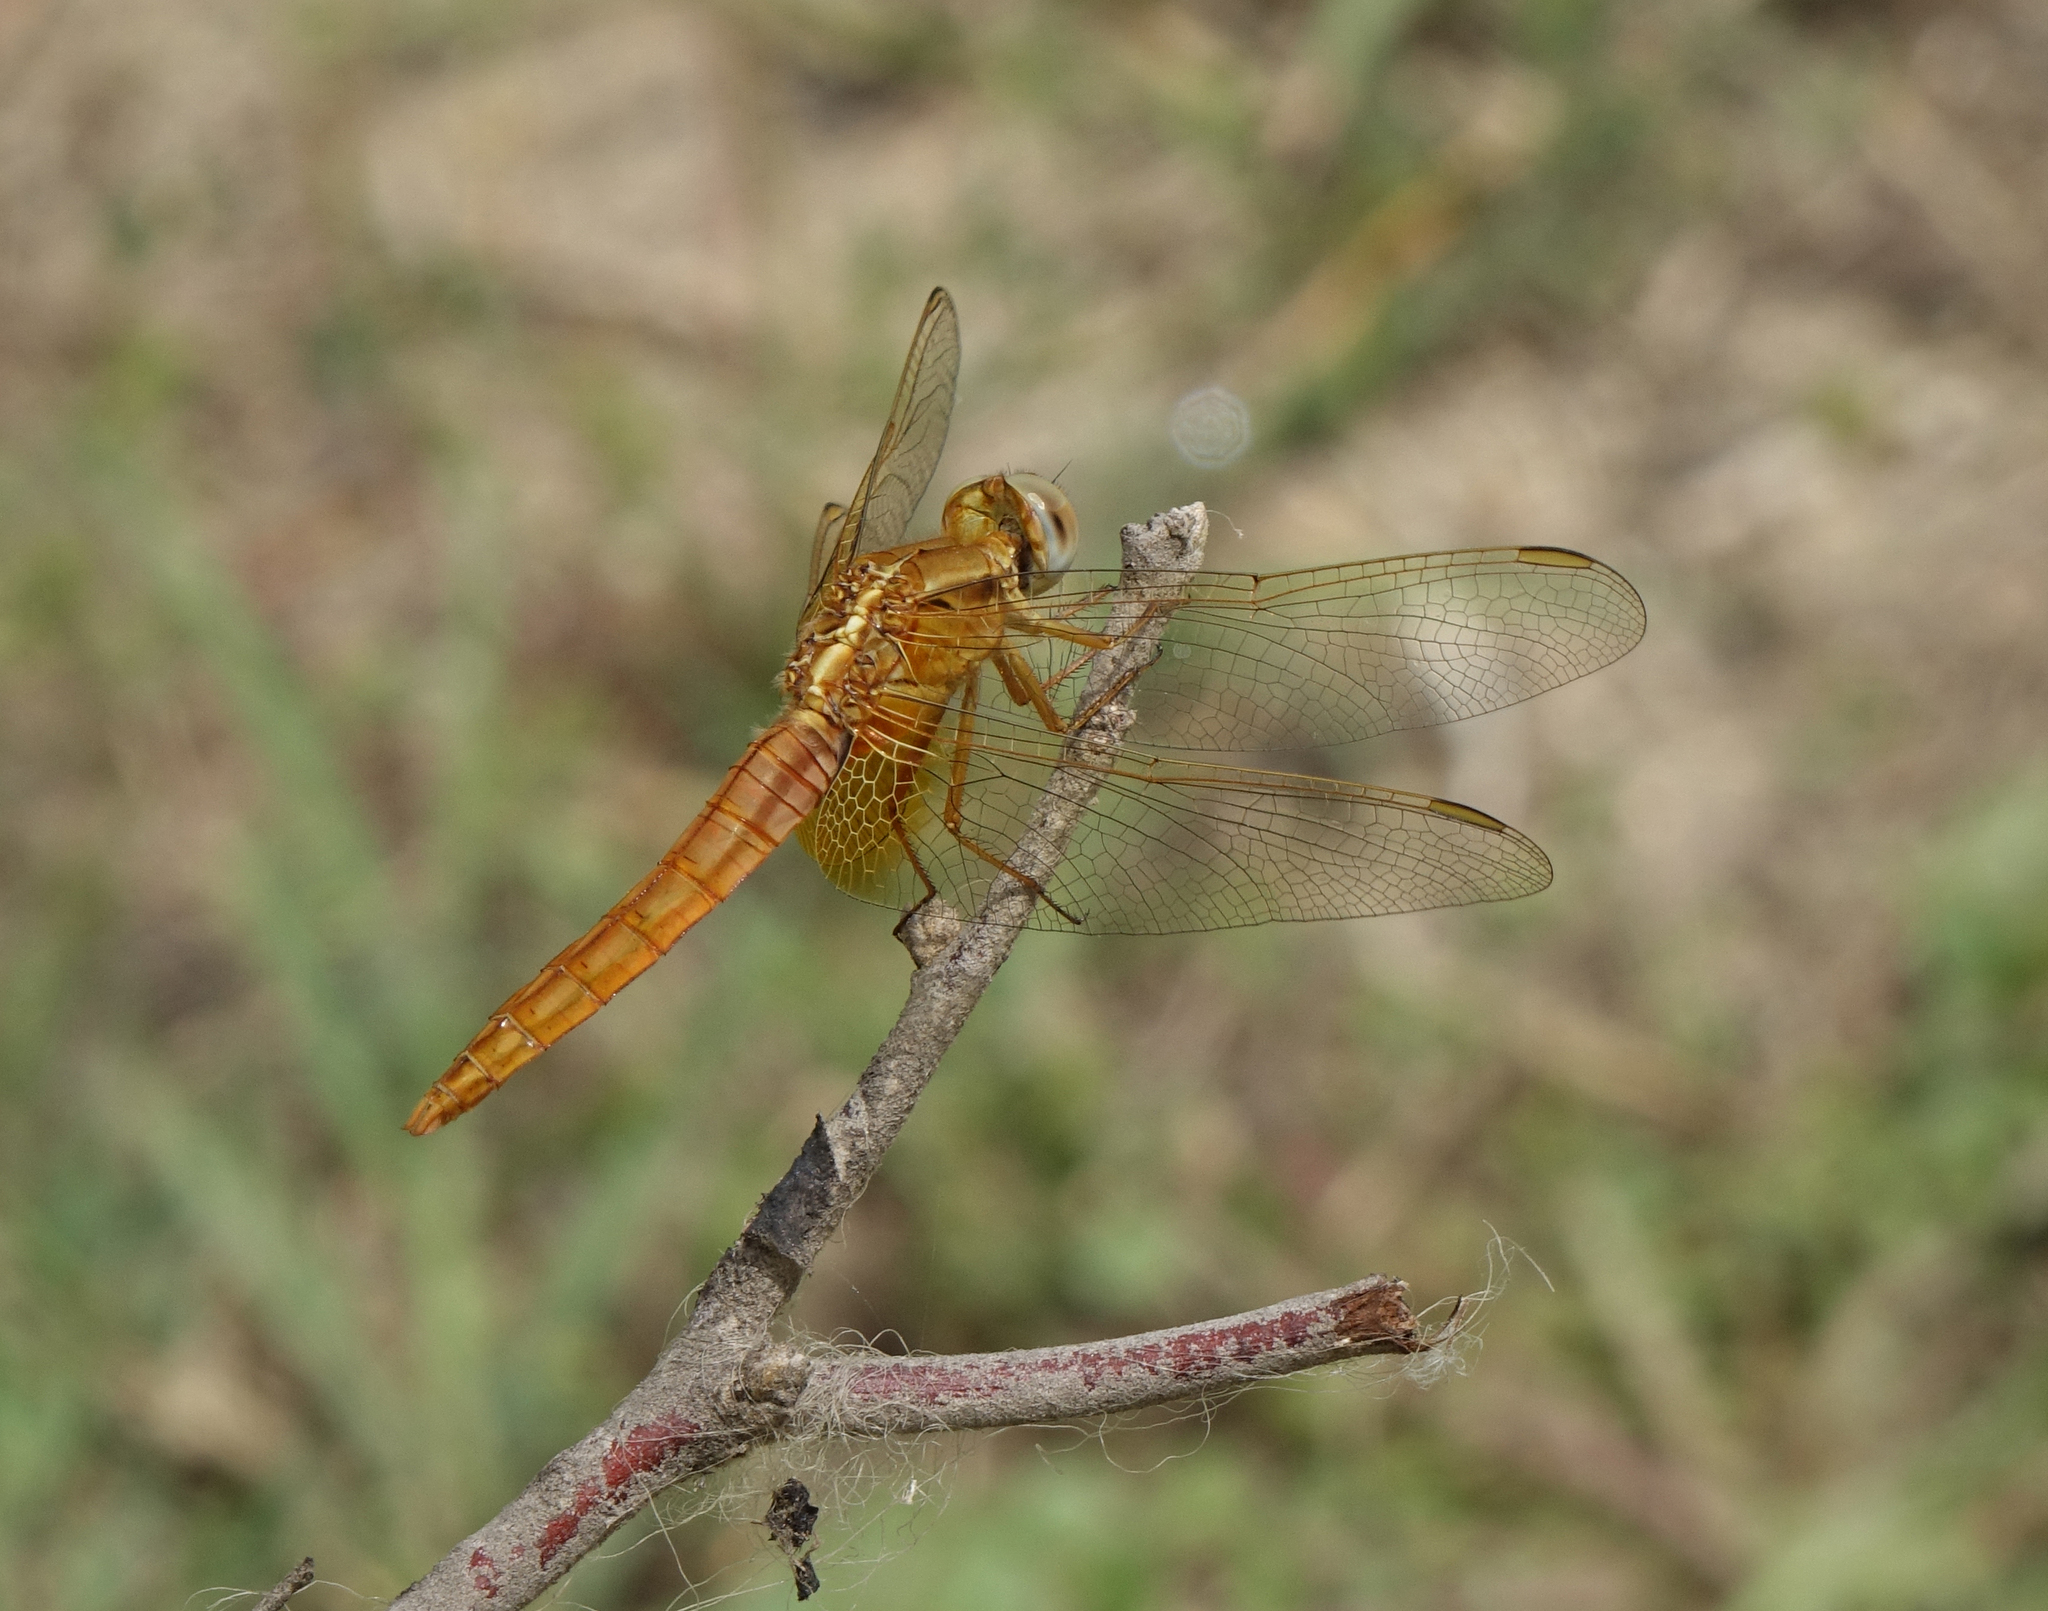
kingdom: Animalia
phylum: Arthropoda
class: Insecta
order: Odonata
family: Libellulidae
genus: Crocothemis
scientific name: Crocothemis erythraea
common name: Scarlet dragonfly
